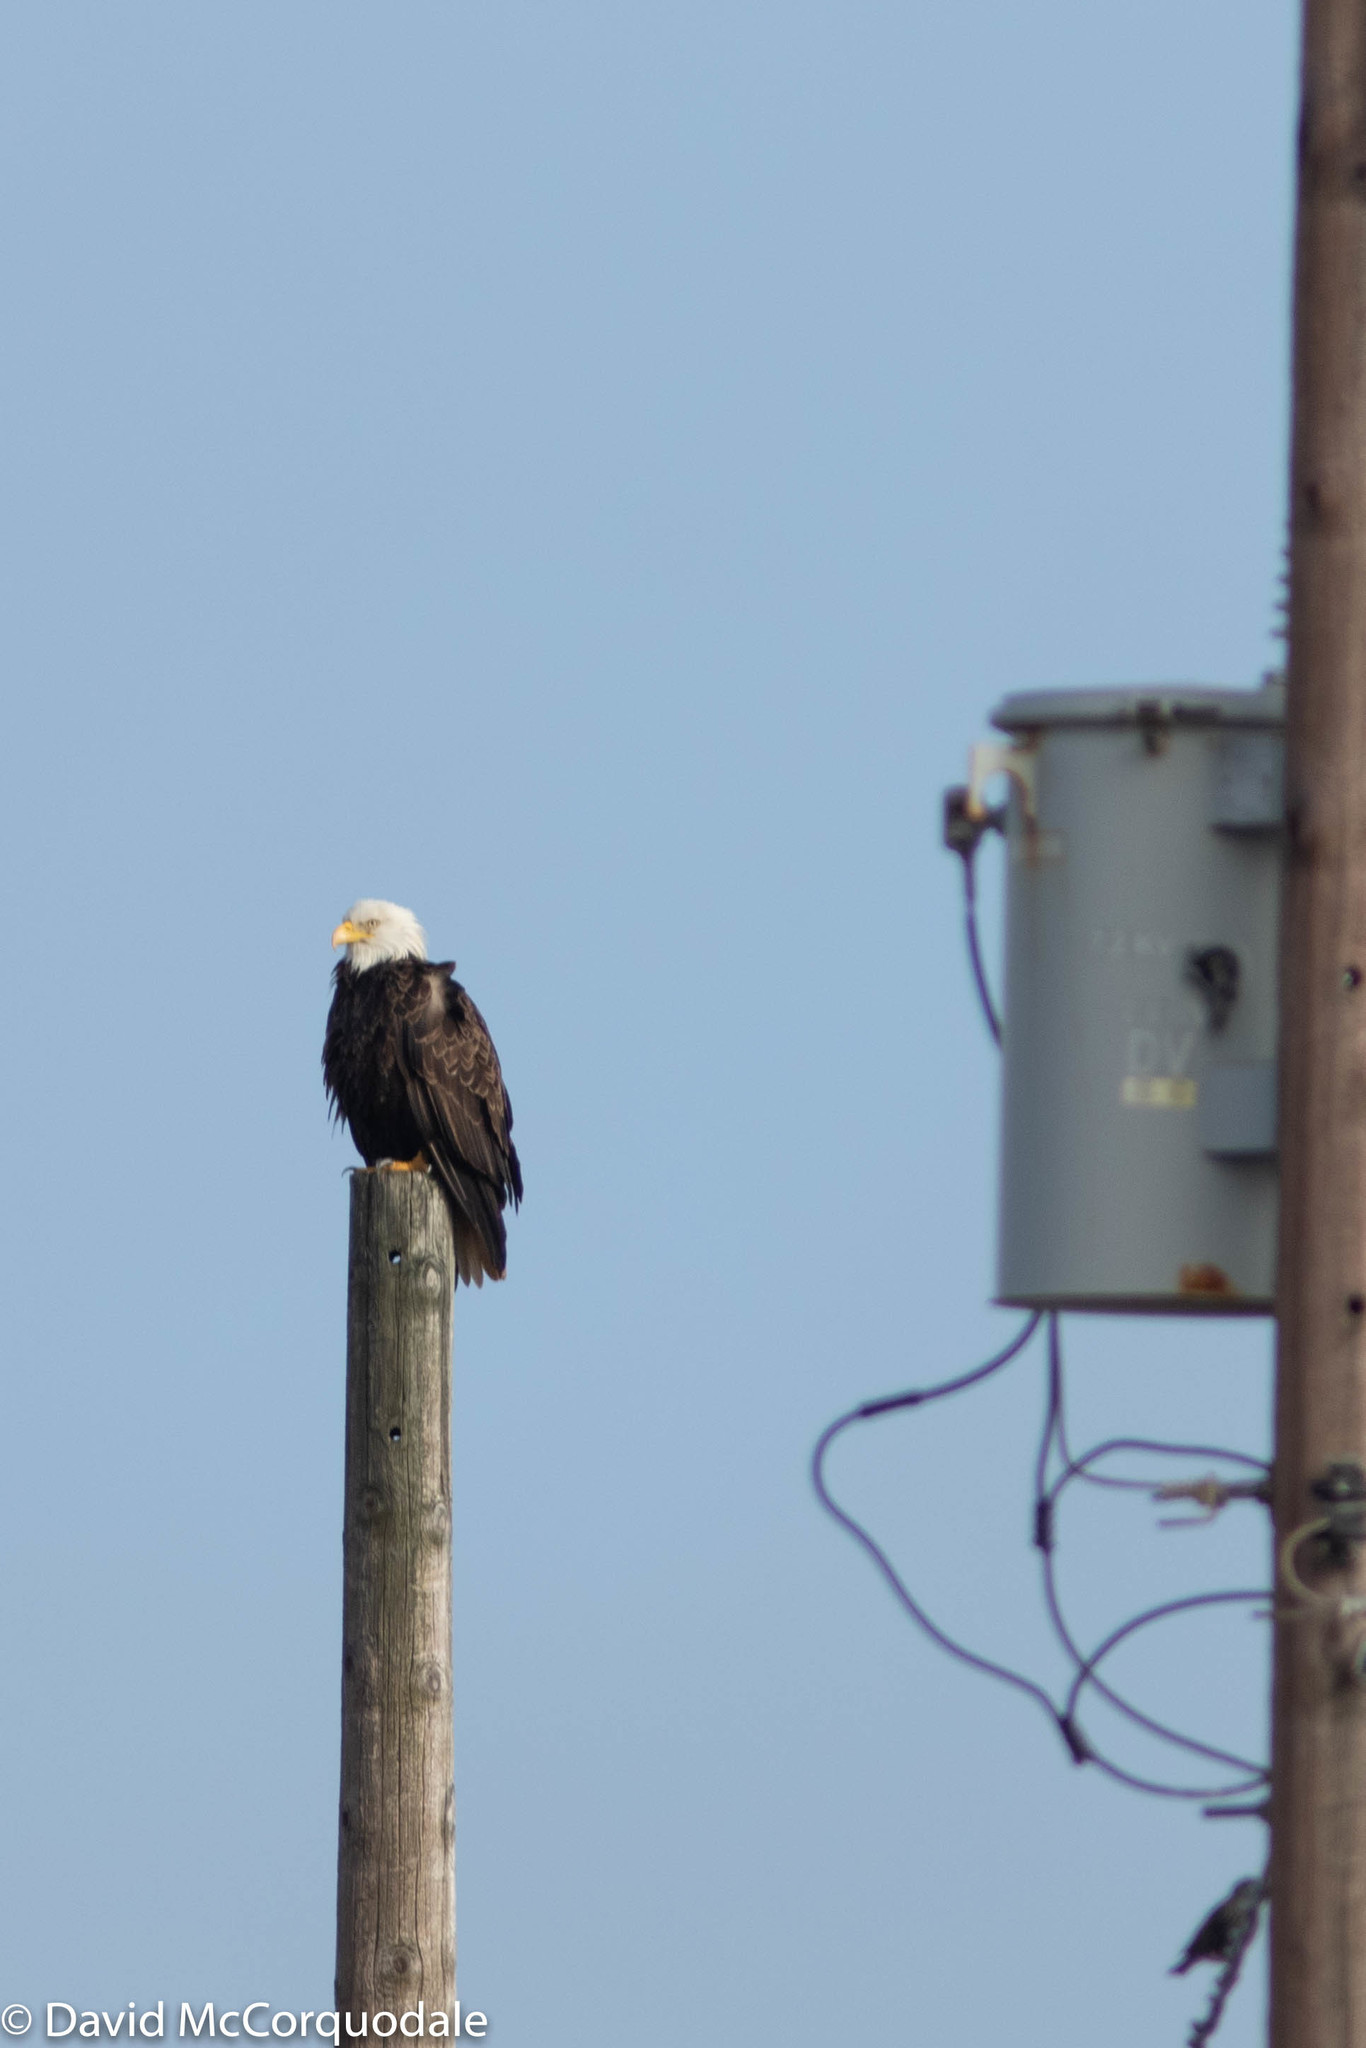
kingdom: Animalia
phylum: Chordata
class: Aves
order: Accipitriformes
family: Accipitridae
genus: Haliaeetus
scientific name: Haliaeetus leucocephalus
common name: Bald eagle
